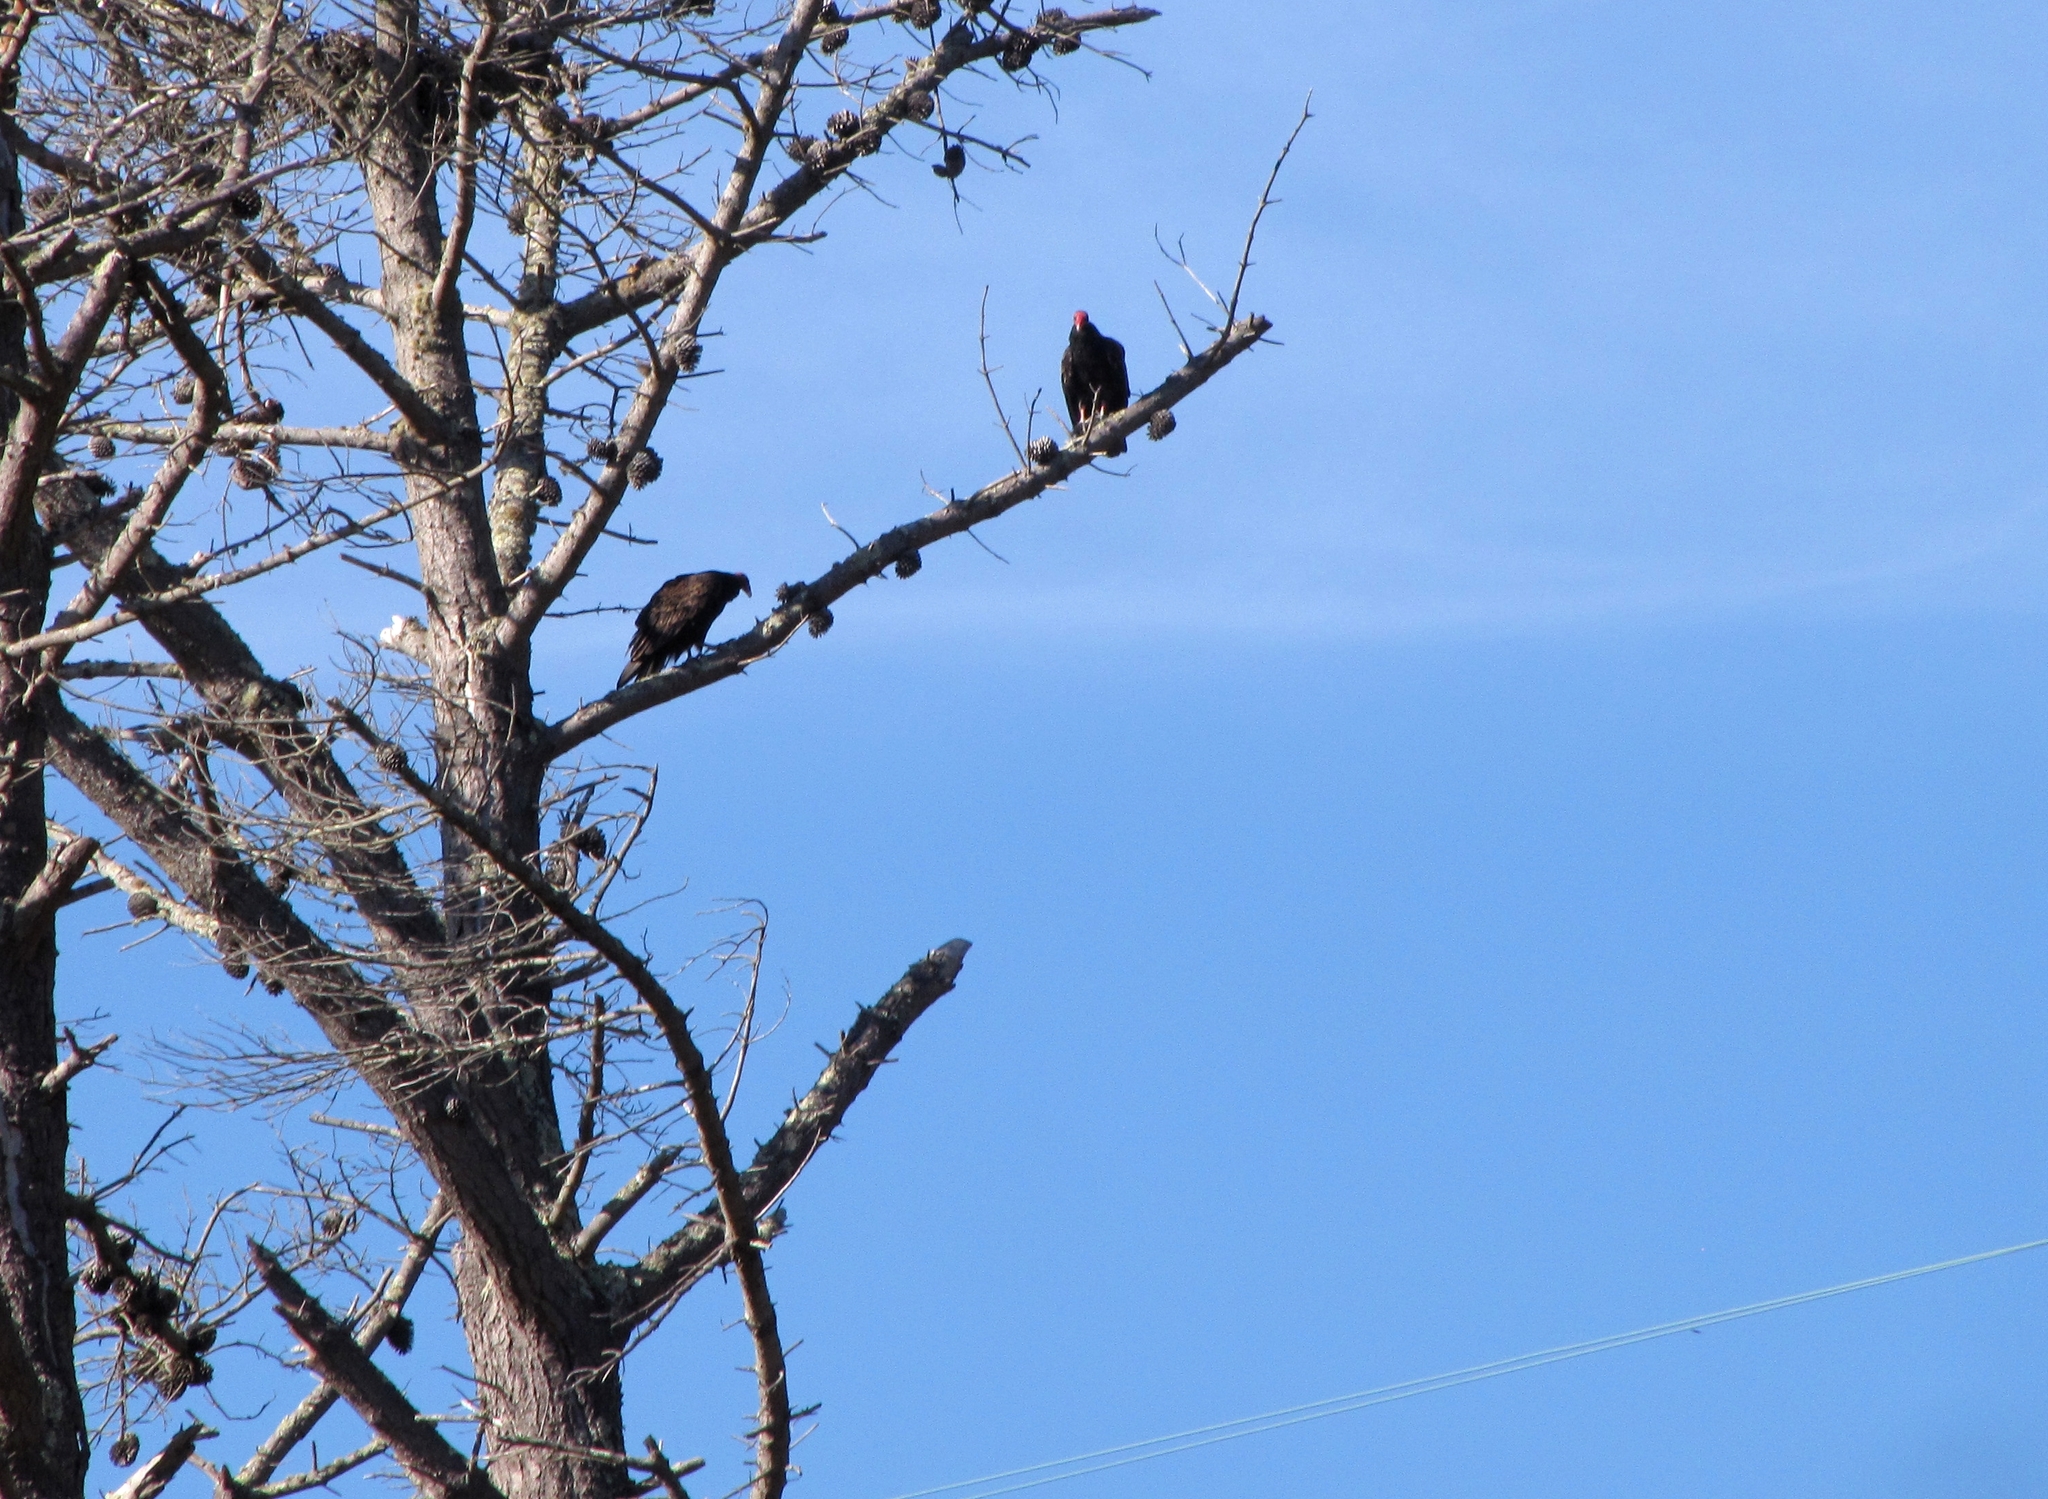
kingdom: Animalia
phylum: Chordata
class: Aves
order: Accipitriformes
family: Cathartidae
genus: Cathartes
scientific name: Cathartes aura
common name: Turkey vulture
